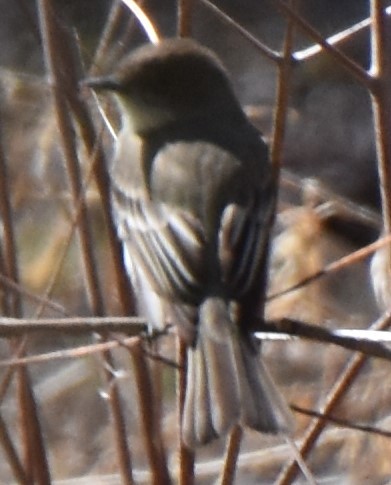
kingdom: Animalia
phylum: Chordata
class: Aves
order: Passeriformes
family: Tyrannidae
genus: Sayornis
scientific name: Sayornis phoebe
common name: Eastern phoebe
